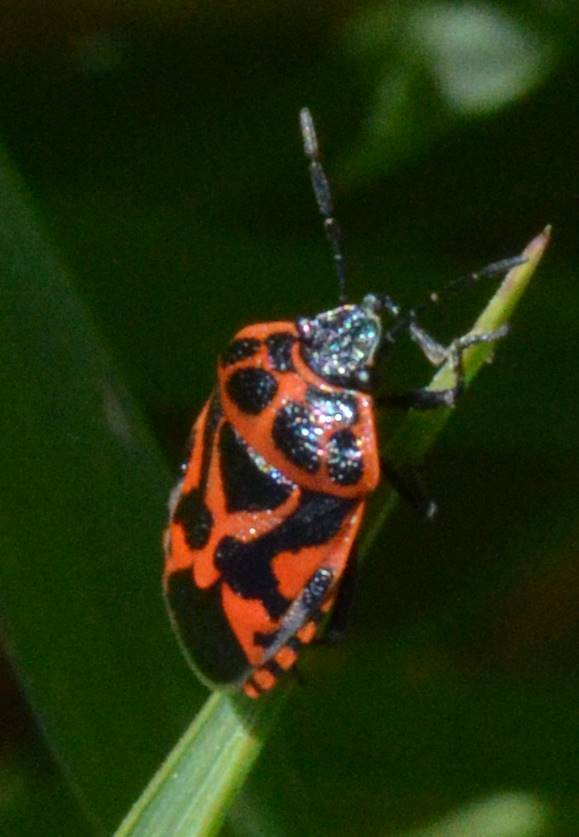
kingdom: Animalia
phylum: Arthropoda
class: Insecta
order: Hemiptera
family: Pentatomidae
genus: Eurydema
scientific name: Eurydema ornata
